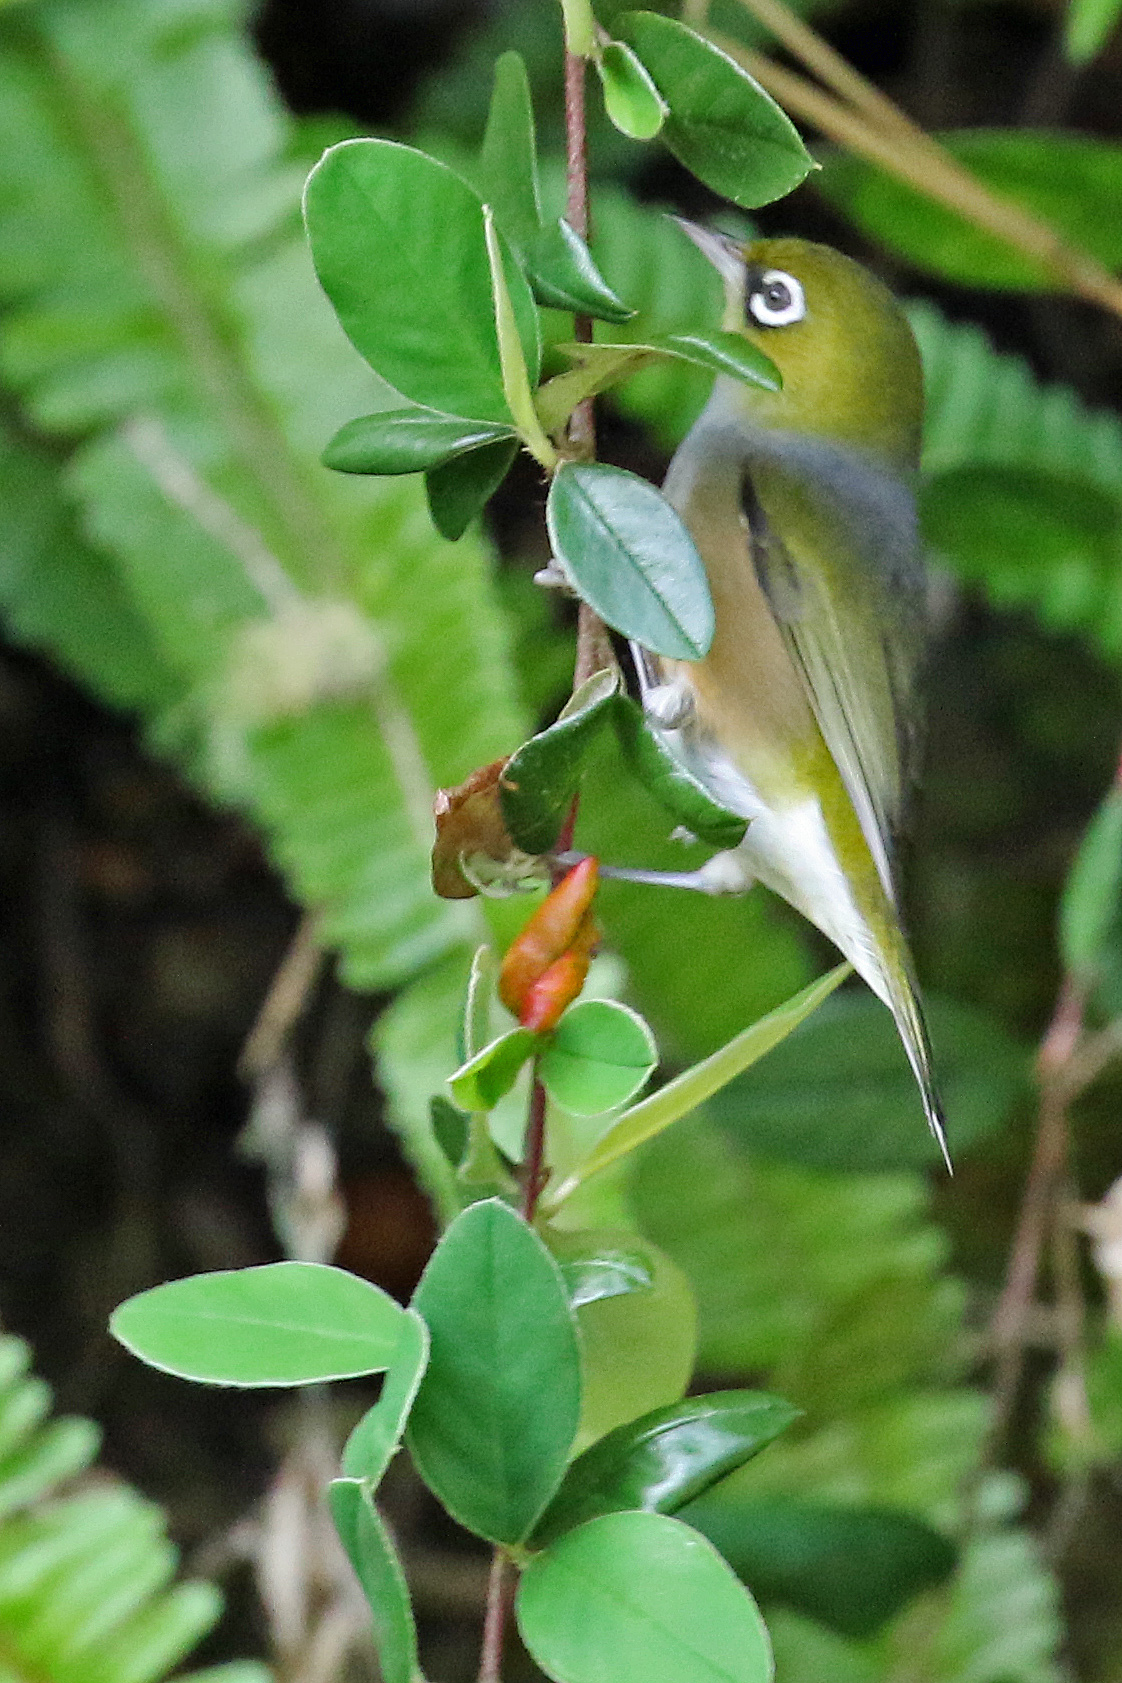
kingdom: Animalia
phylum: Chordata
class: Aves
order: Passeriformes
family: Zosteropidae
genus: Zosterops
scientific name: Zosterops lateralis
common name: Silvereye
